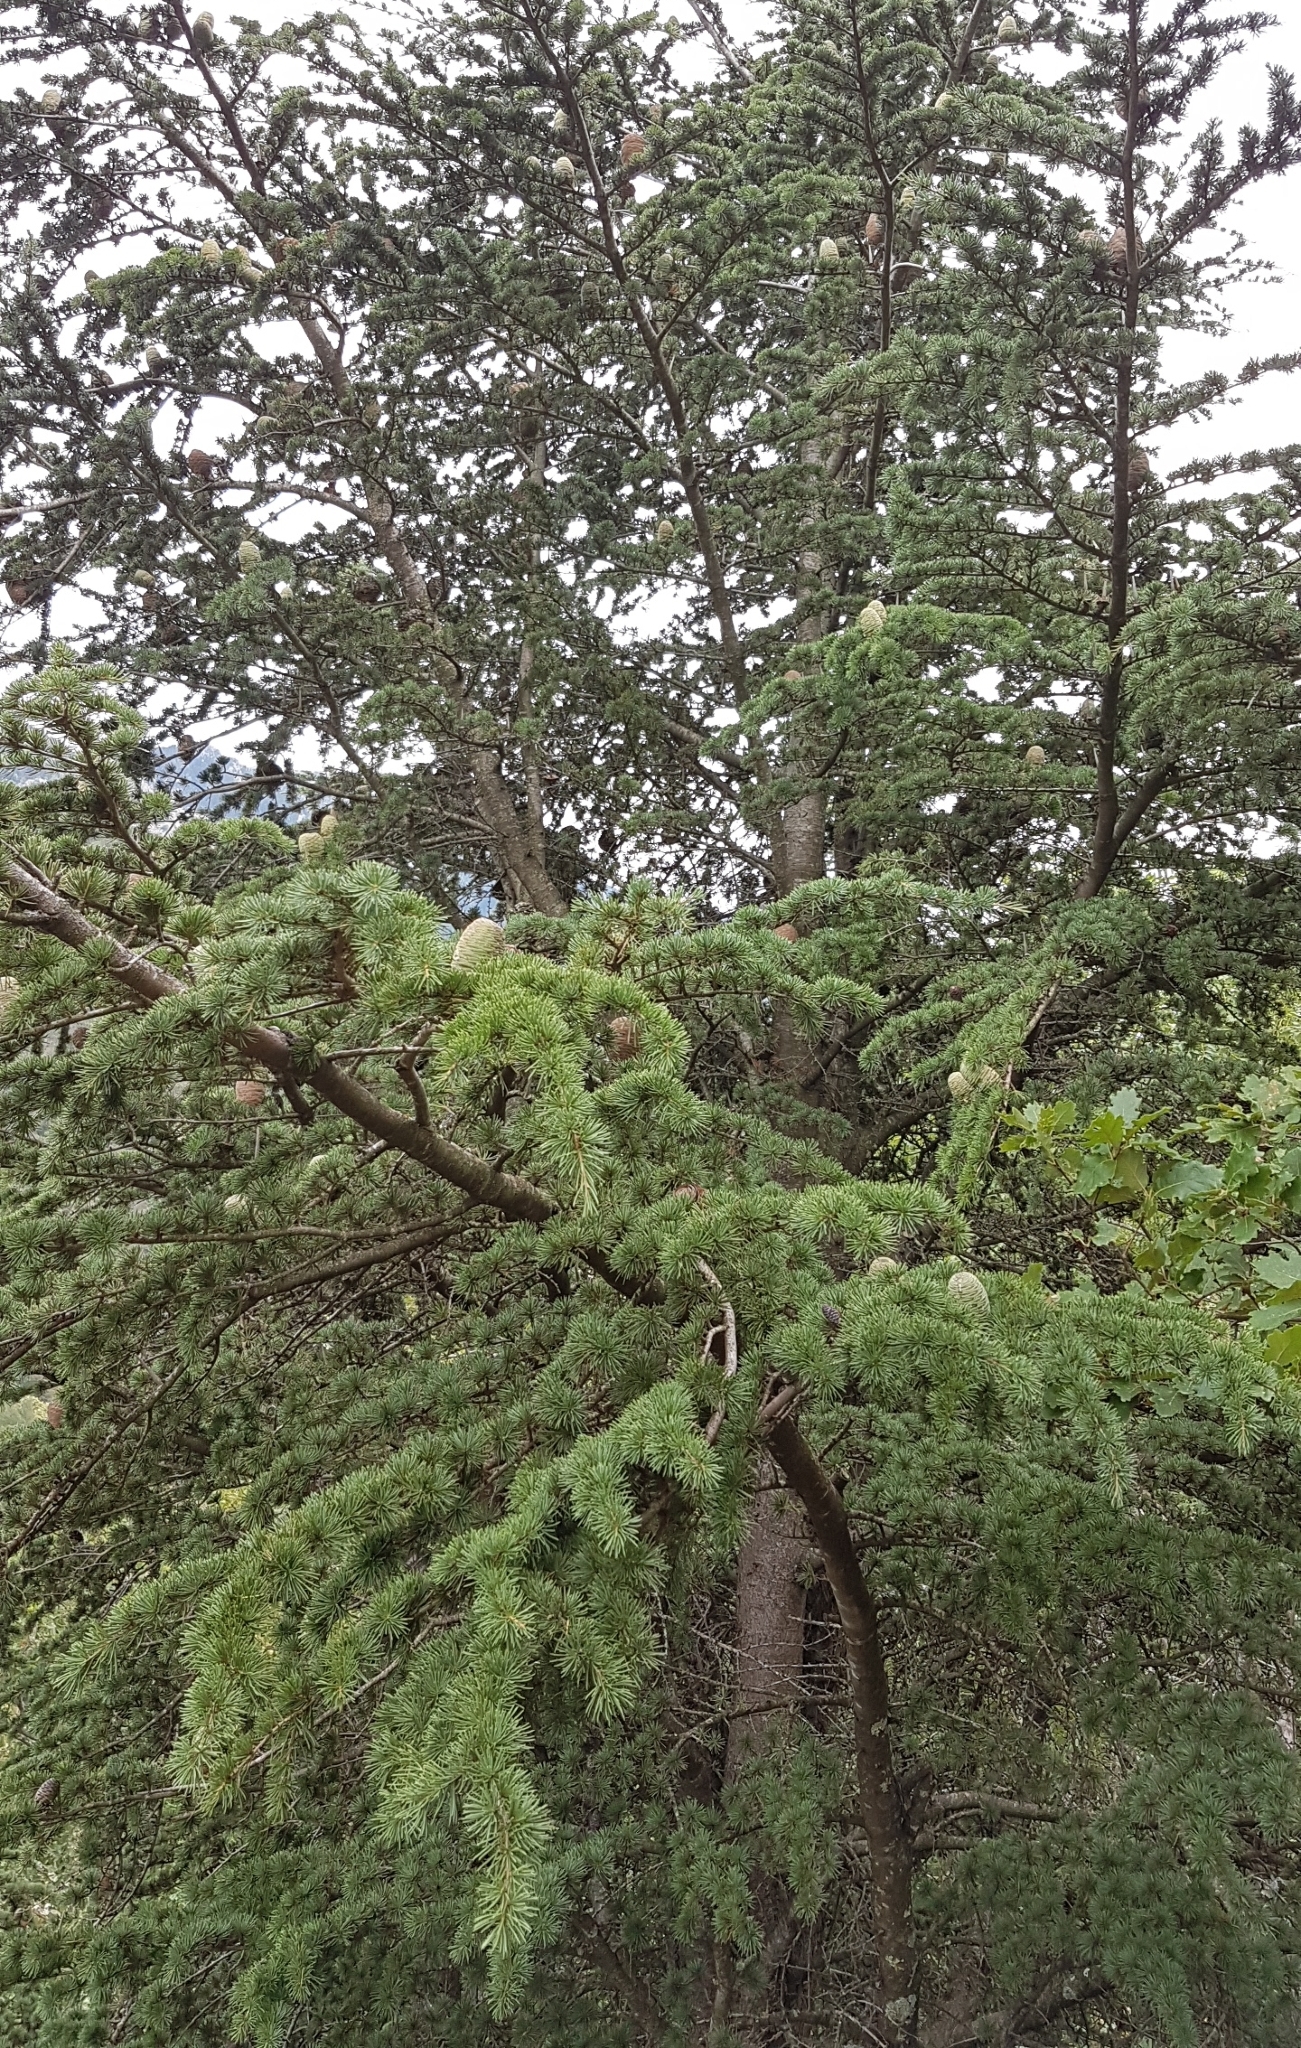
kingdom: Plantae
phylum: Tracheophyta
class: Pinopsida
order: Pinales
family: Pinaceae
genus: Cedrus
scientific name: Cedrus atlantica
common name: Atlas cedar
